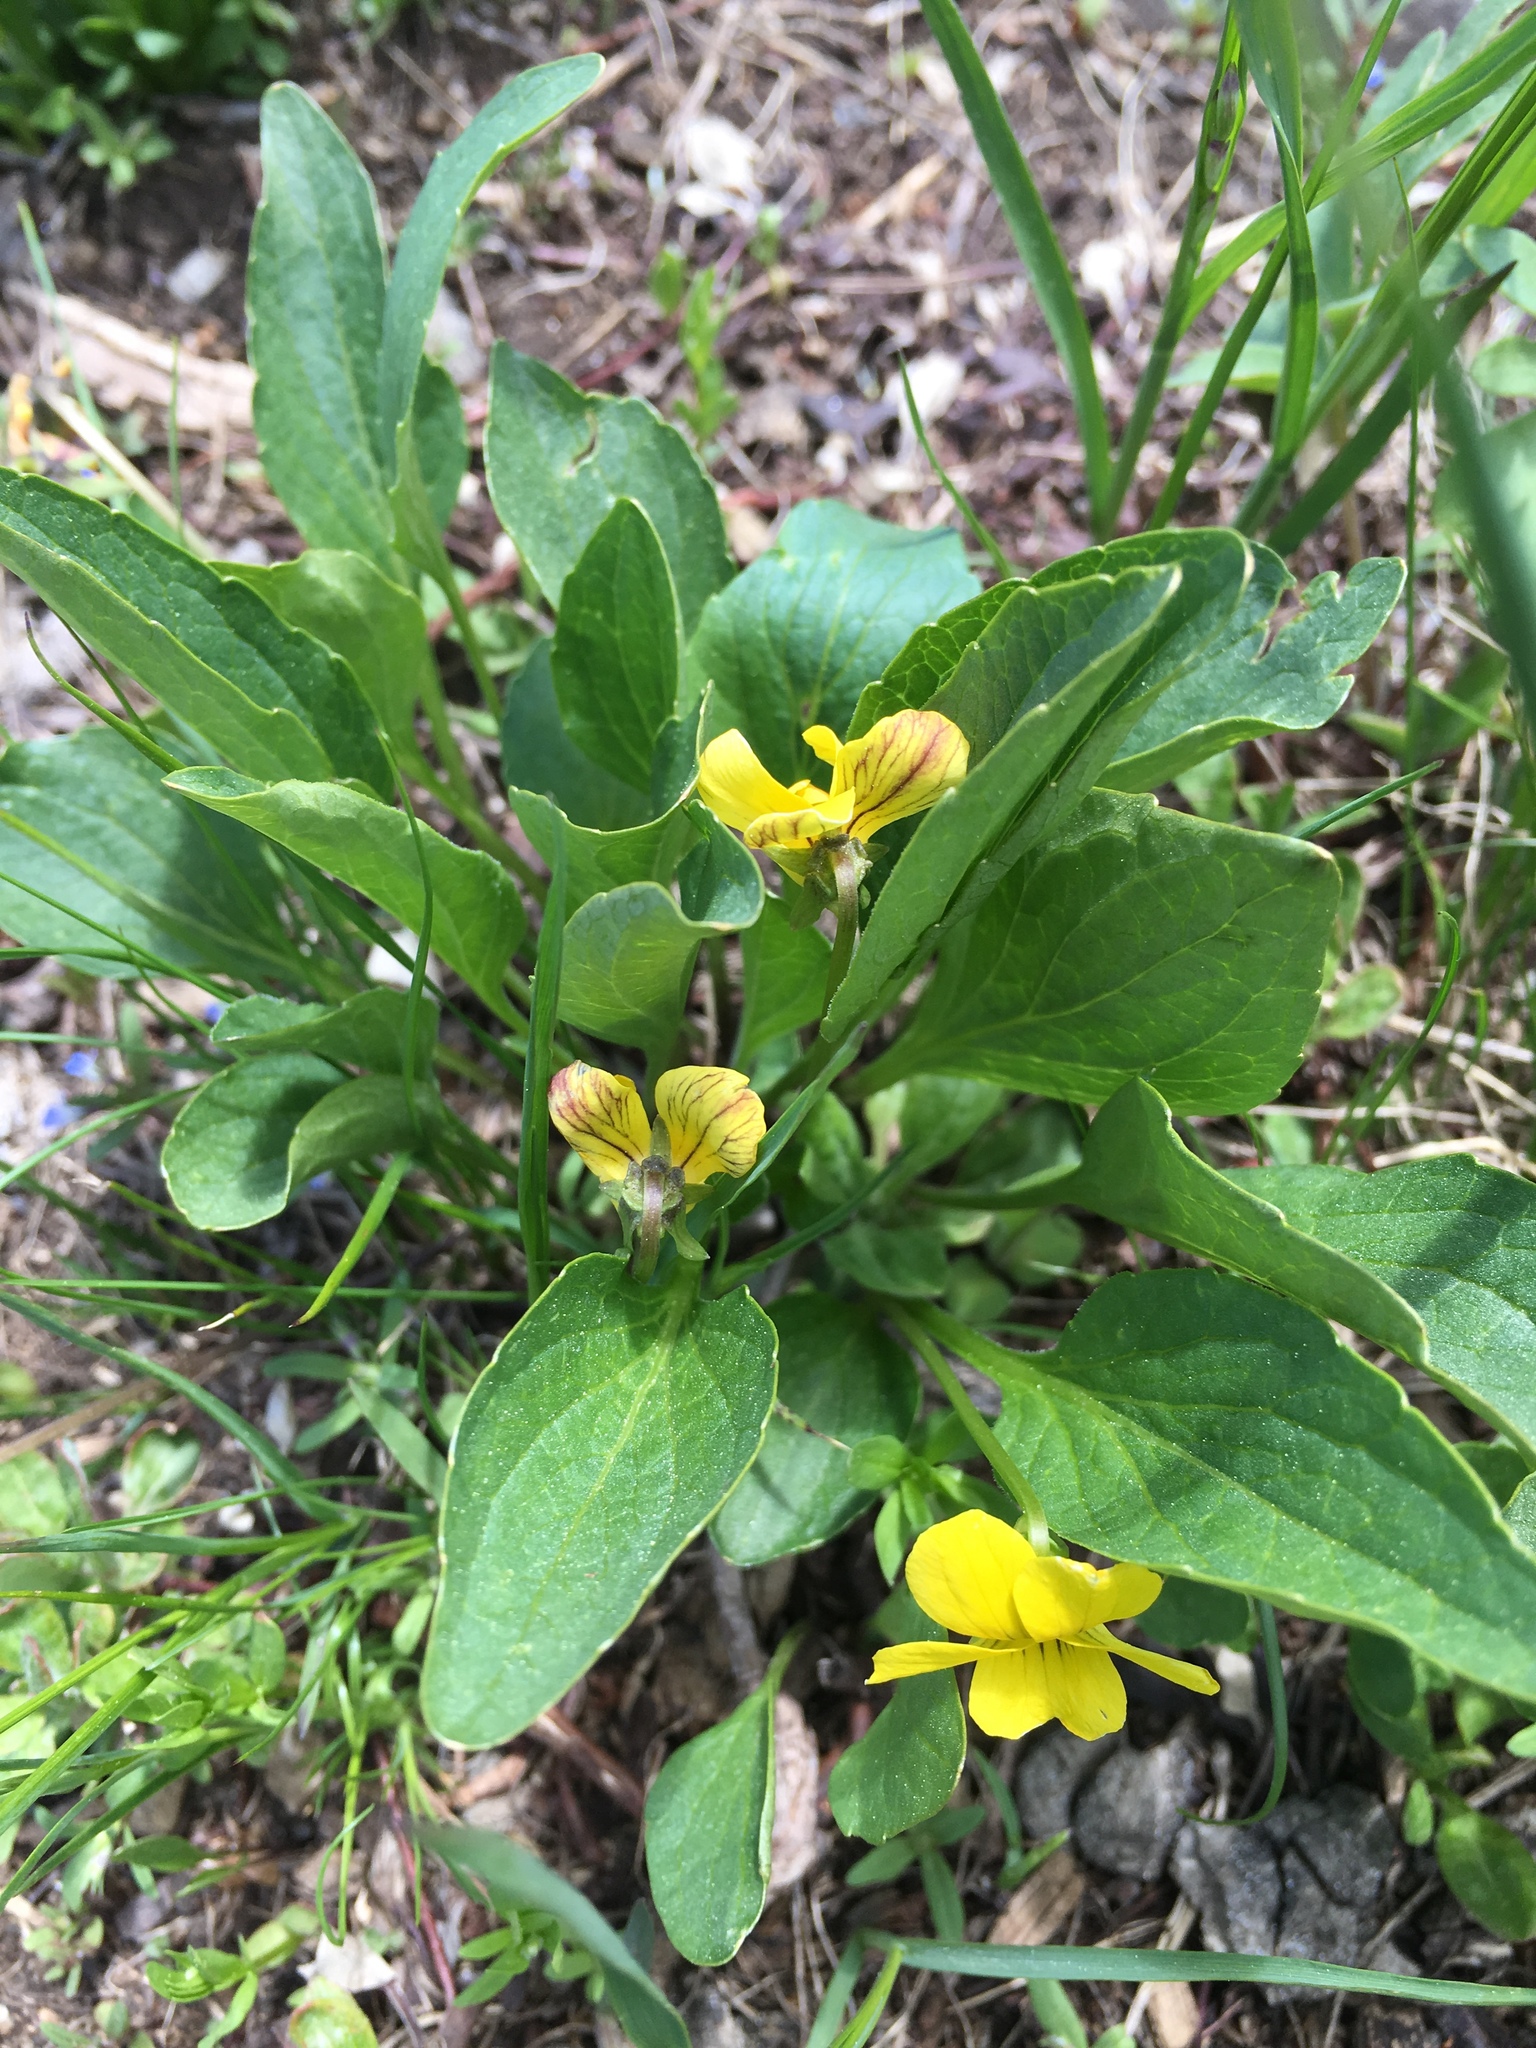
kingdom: Plantae
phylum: Tracheophyta
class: Magnoliopsida
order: Malpighiales
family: Violaceae
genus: Viola
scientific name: Viola nuttallii
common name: Yellow prairie violet
